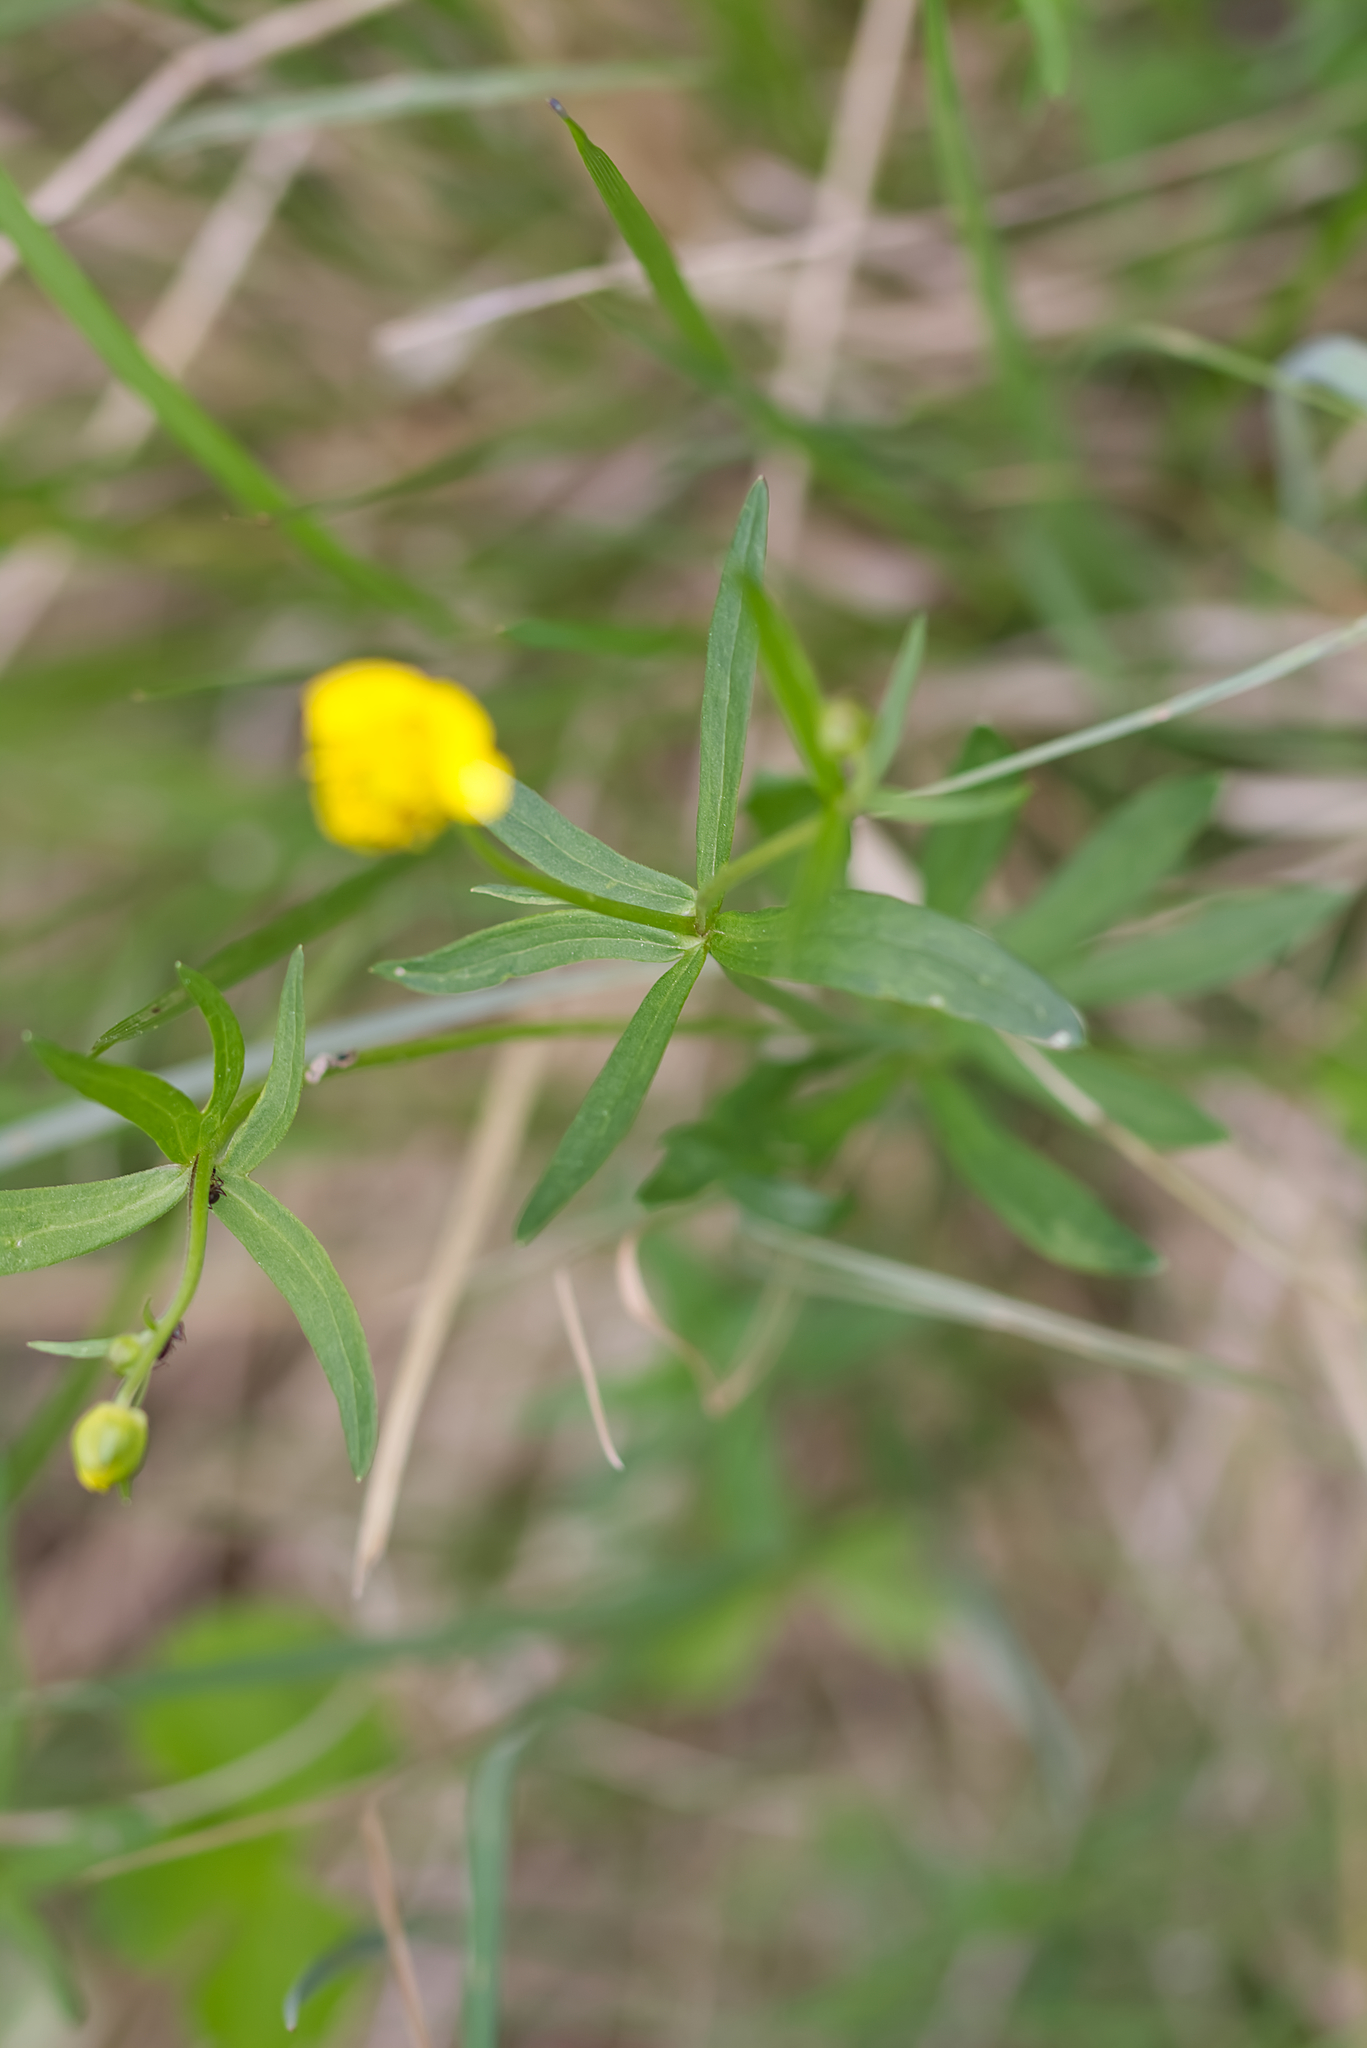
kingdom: Plantae
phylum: Tracheophyta
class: Magnoliopsida
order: Ranunculales
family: Ranunculaceae
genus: Ranunculus
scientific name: Ranunculus auricomus
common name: Goldilocks buttercup
